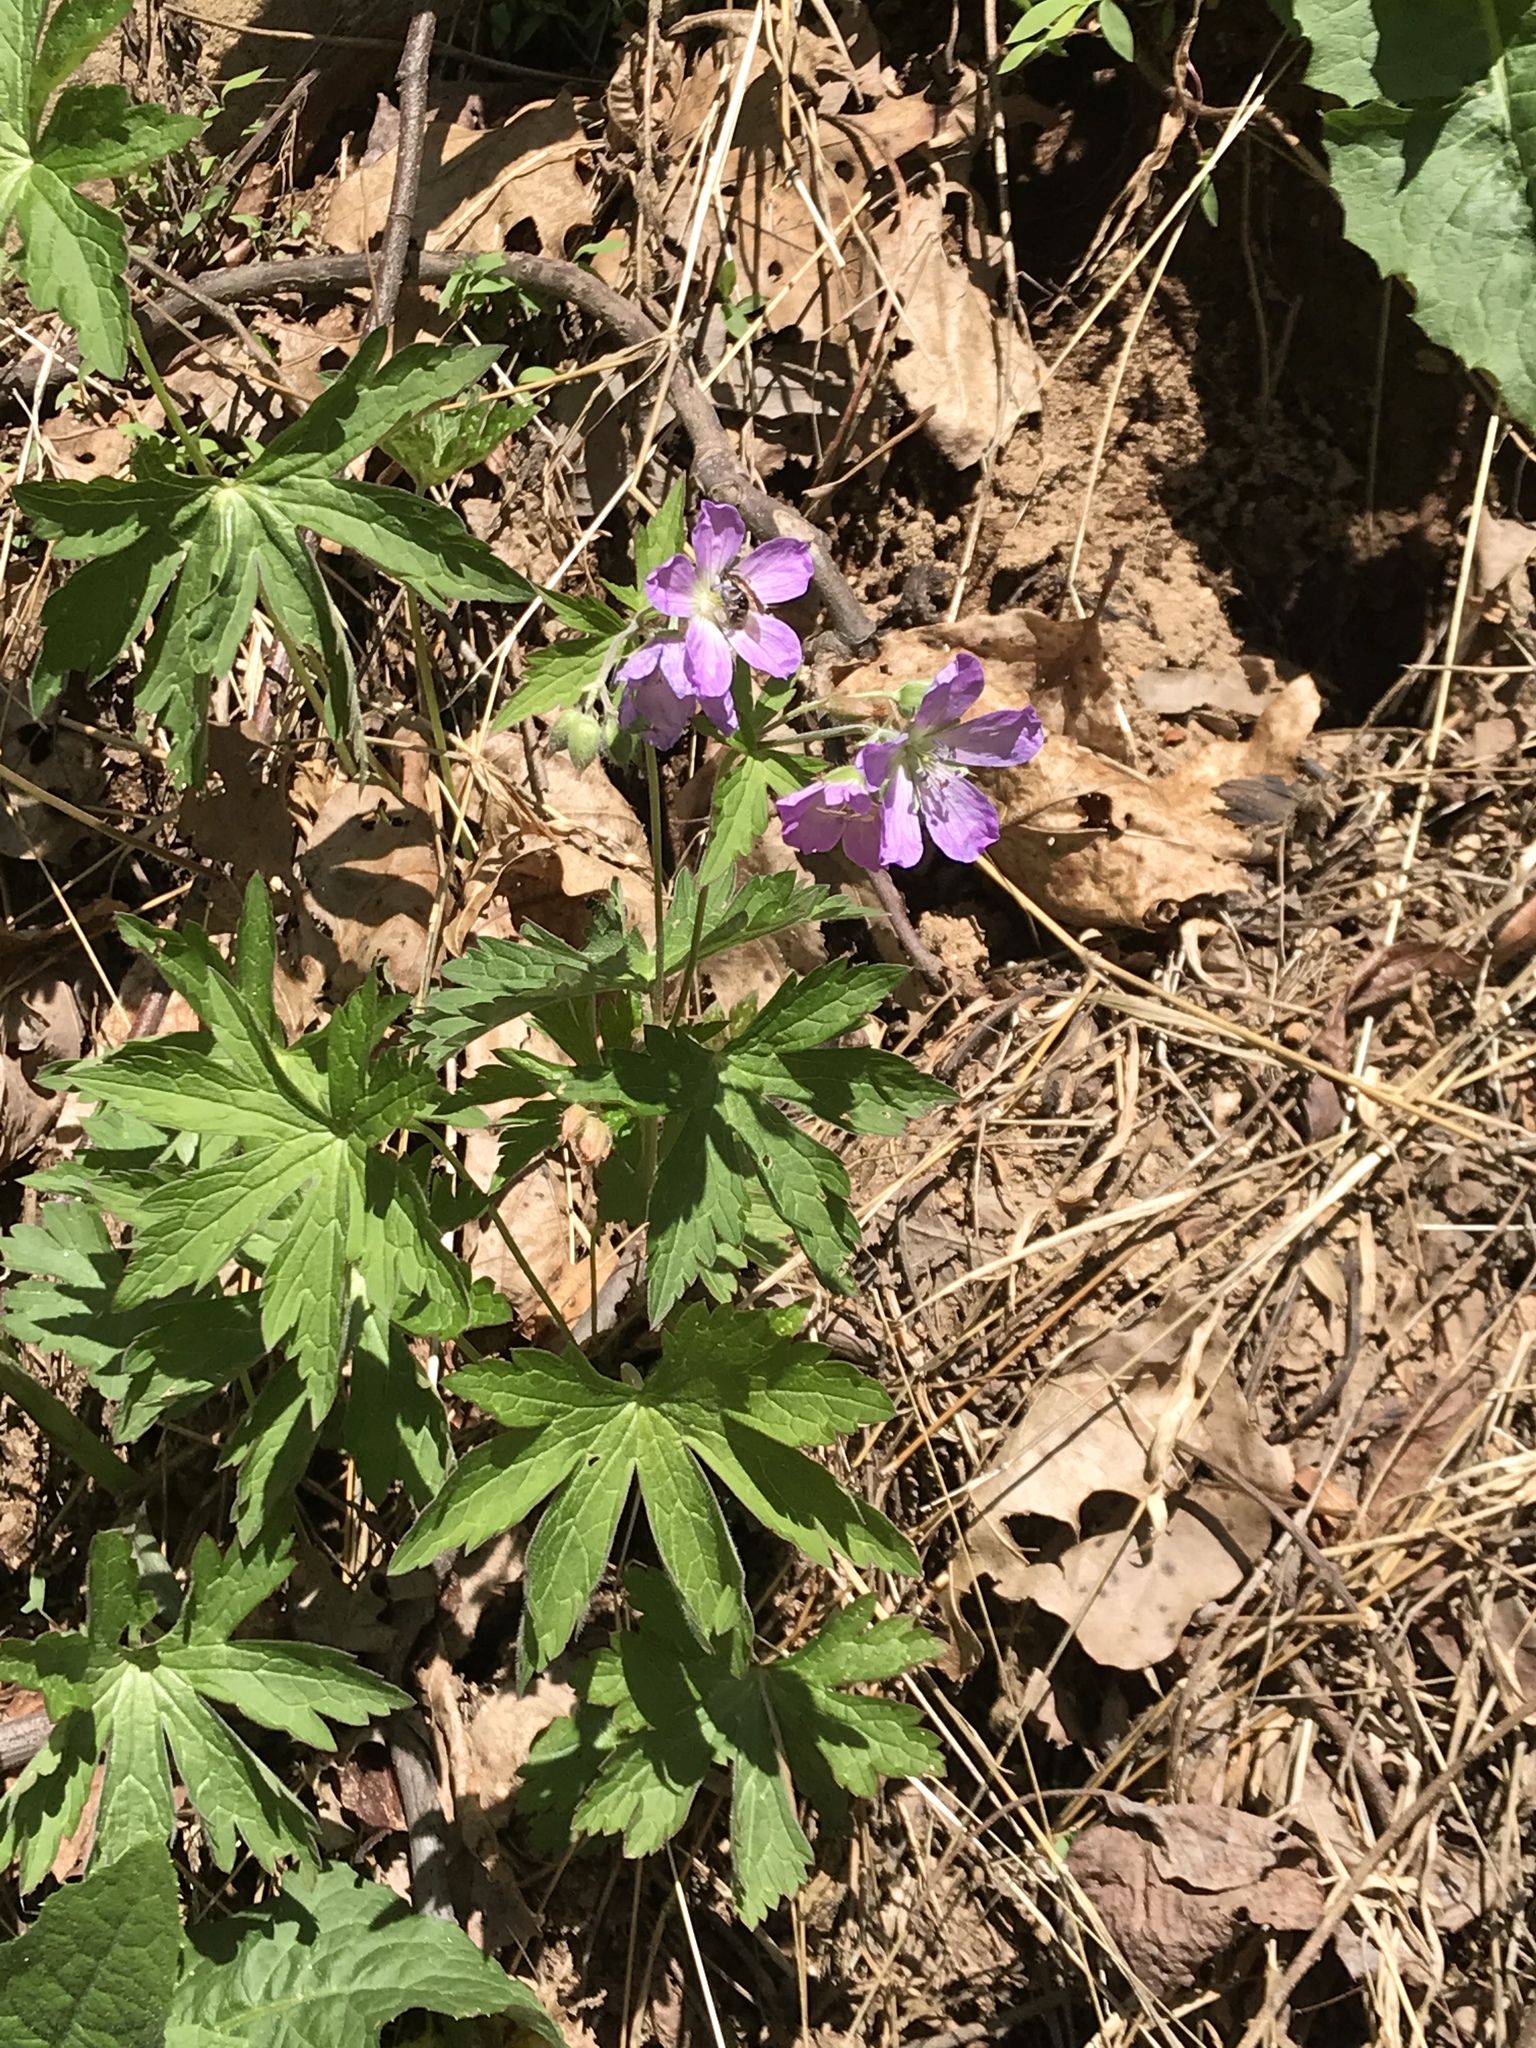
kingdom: Plantae
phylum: Tracheophyta
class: Magnoliopsida
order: Geraniales
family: Geraniaceae
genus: Geranium
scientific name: Geranium maculatum
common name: Spotted geranium
